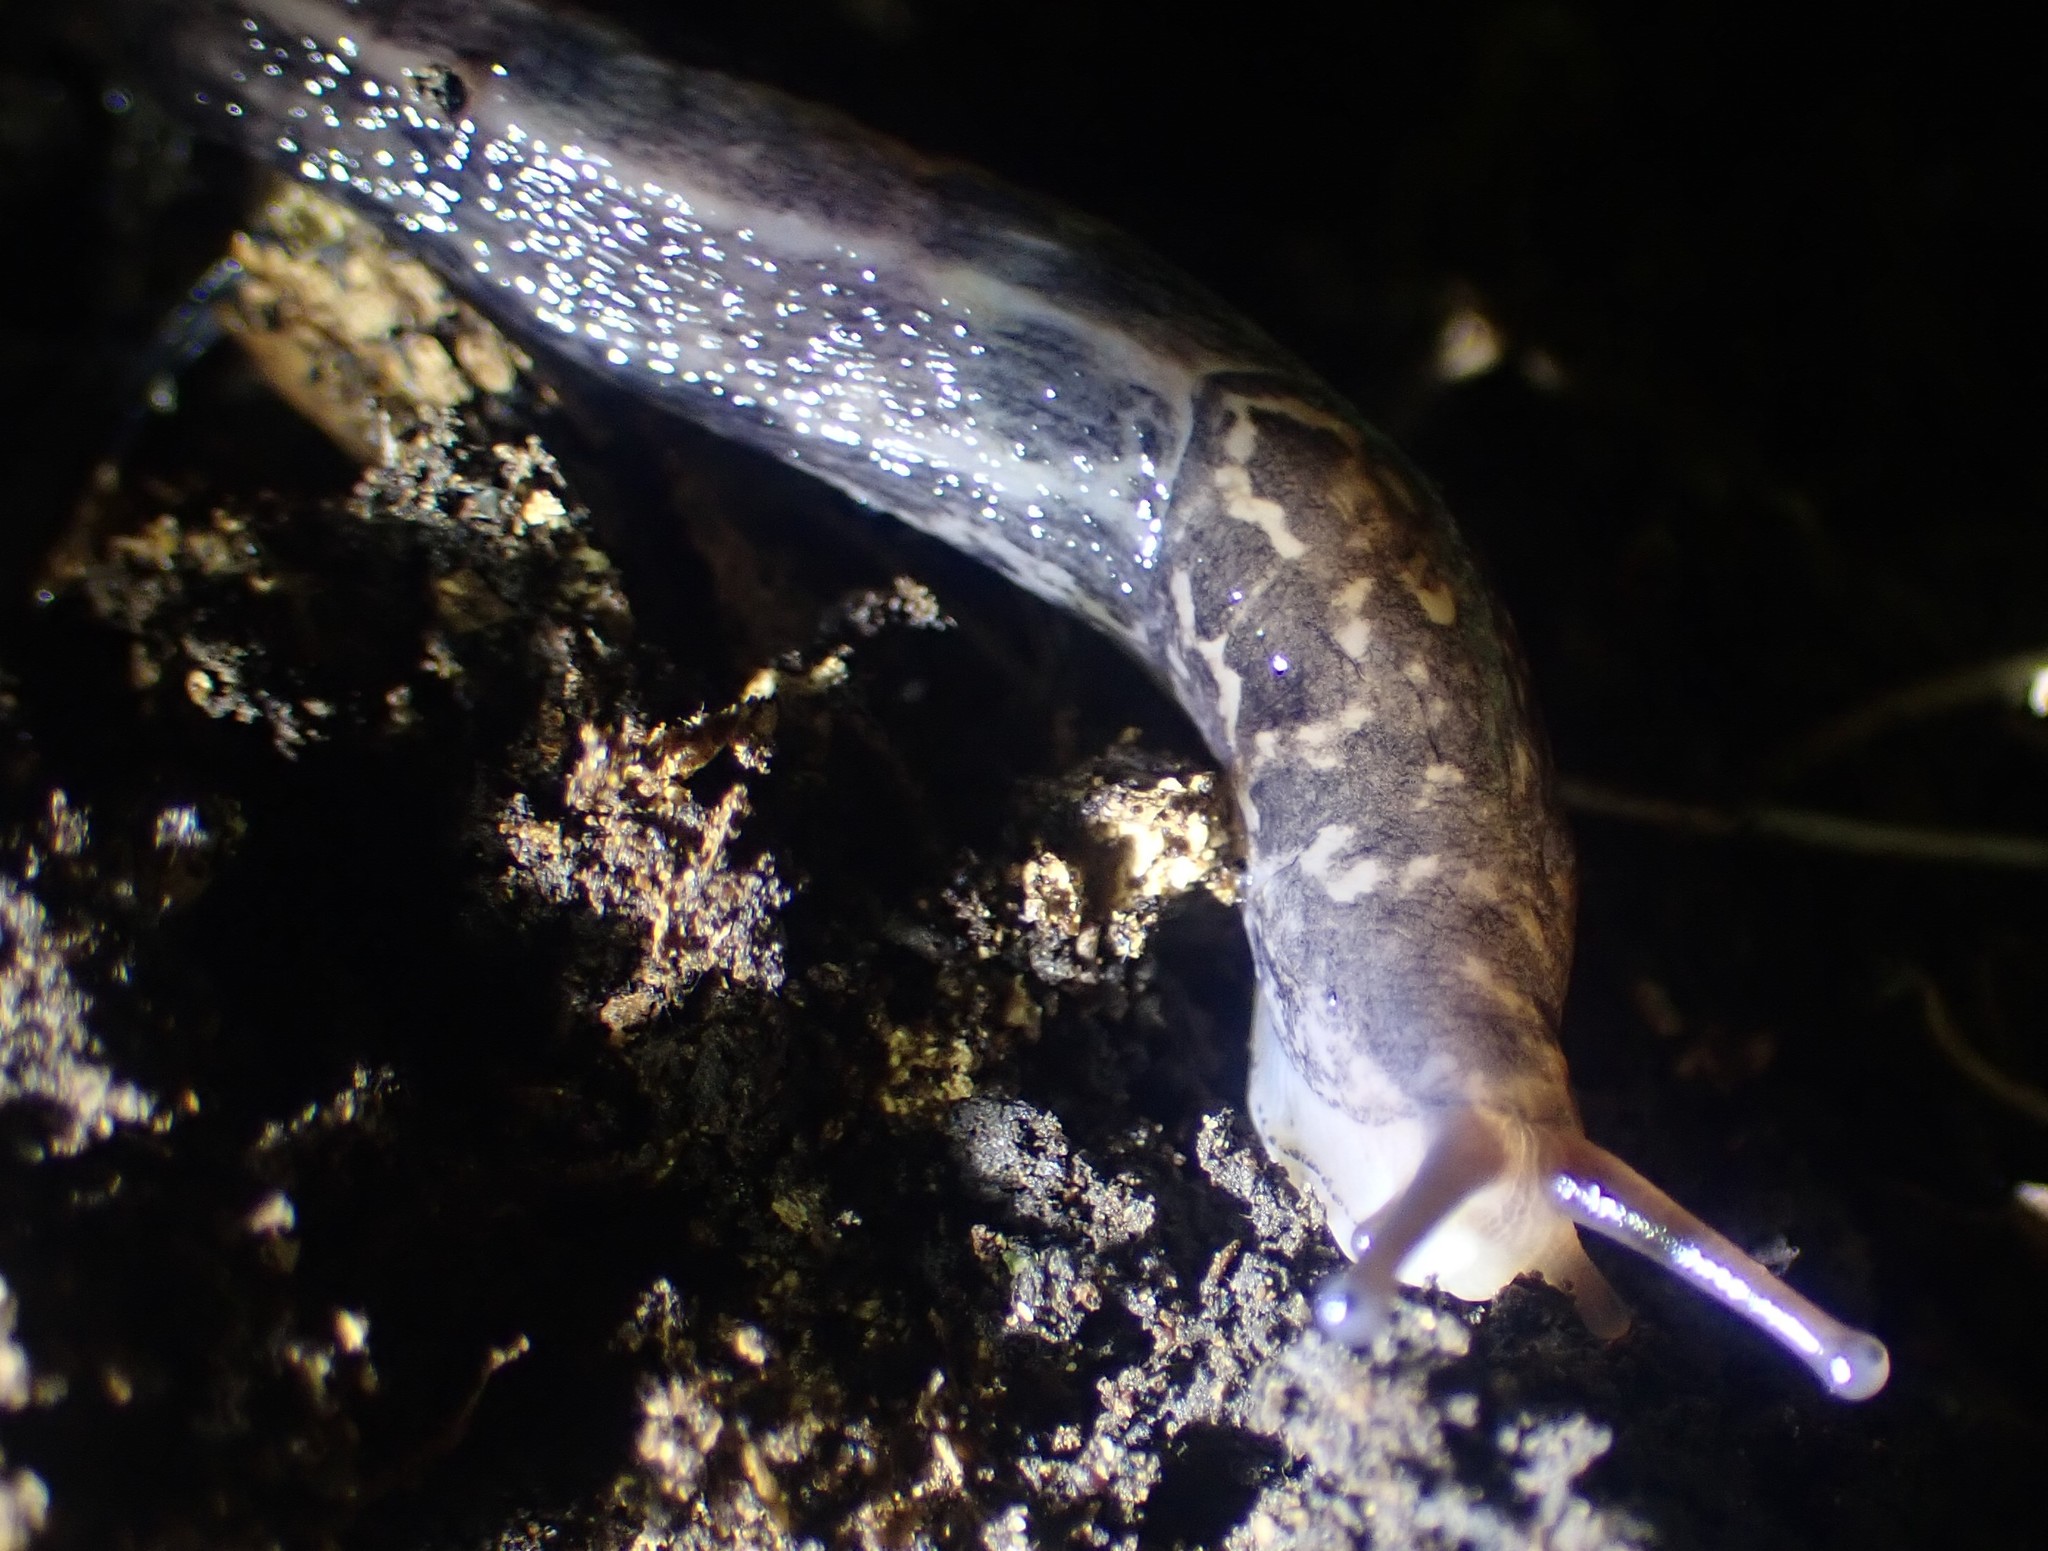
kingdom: Animalia
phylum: Mollusca
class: Gastropoda
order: Stylommatophora
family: Limacidae
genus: Limax
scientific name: Limax maximus
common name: Great grey slug
